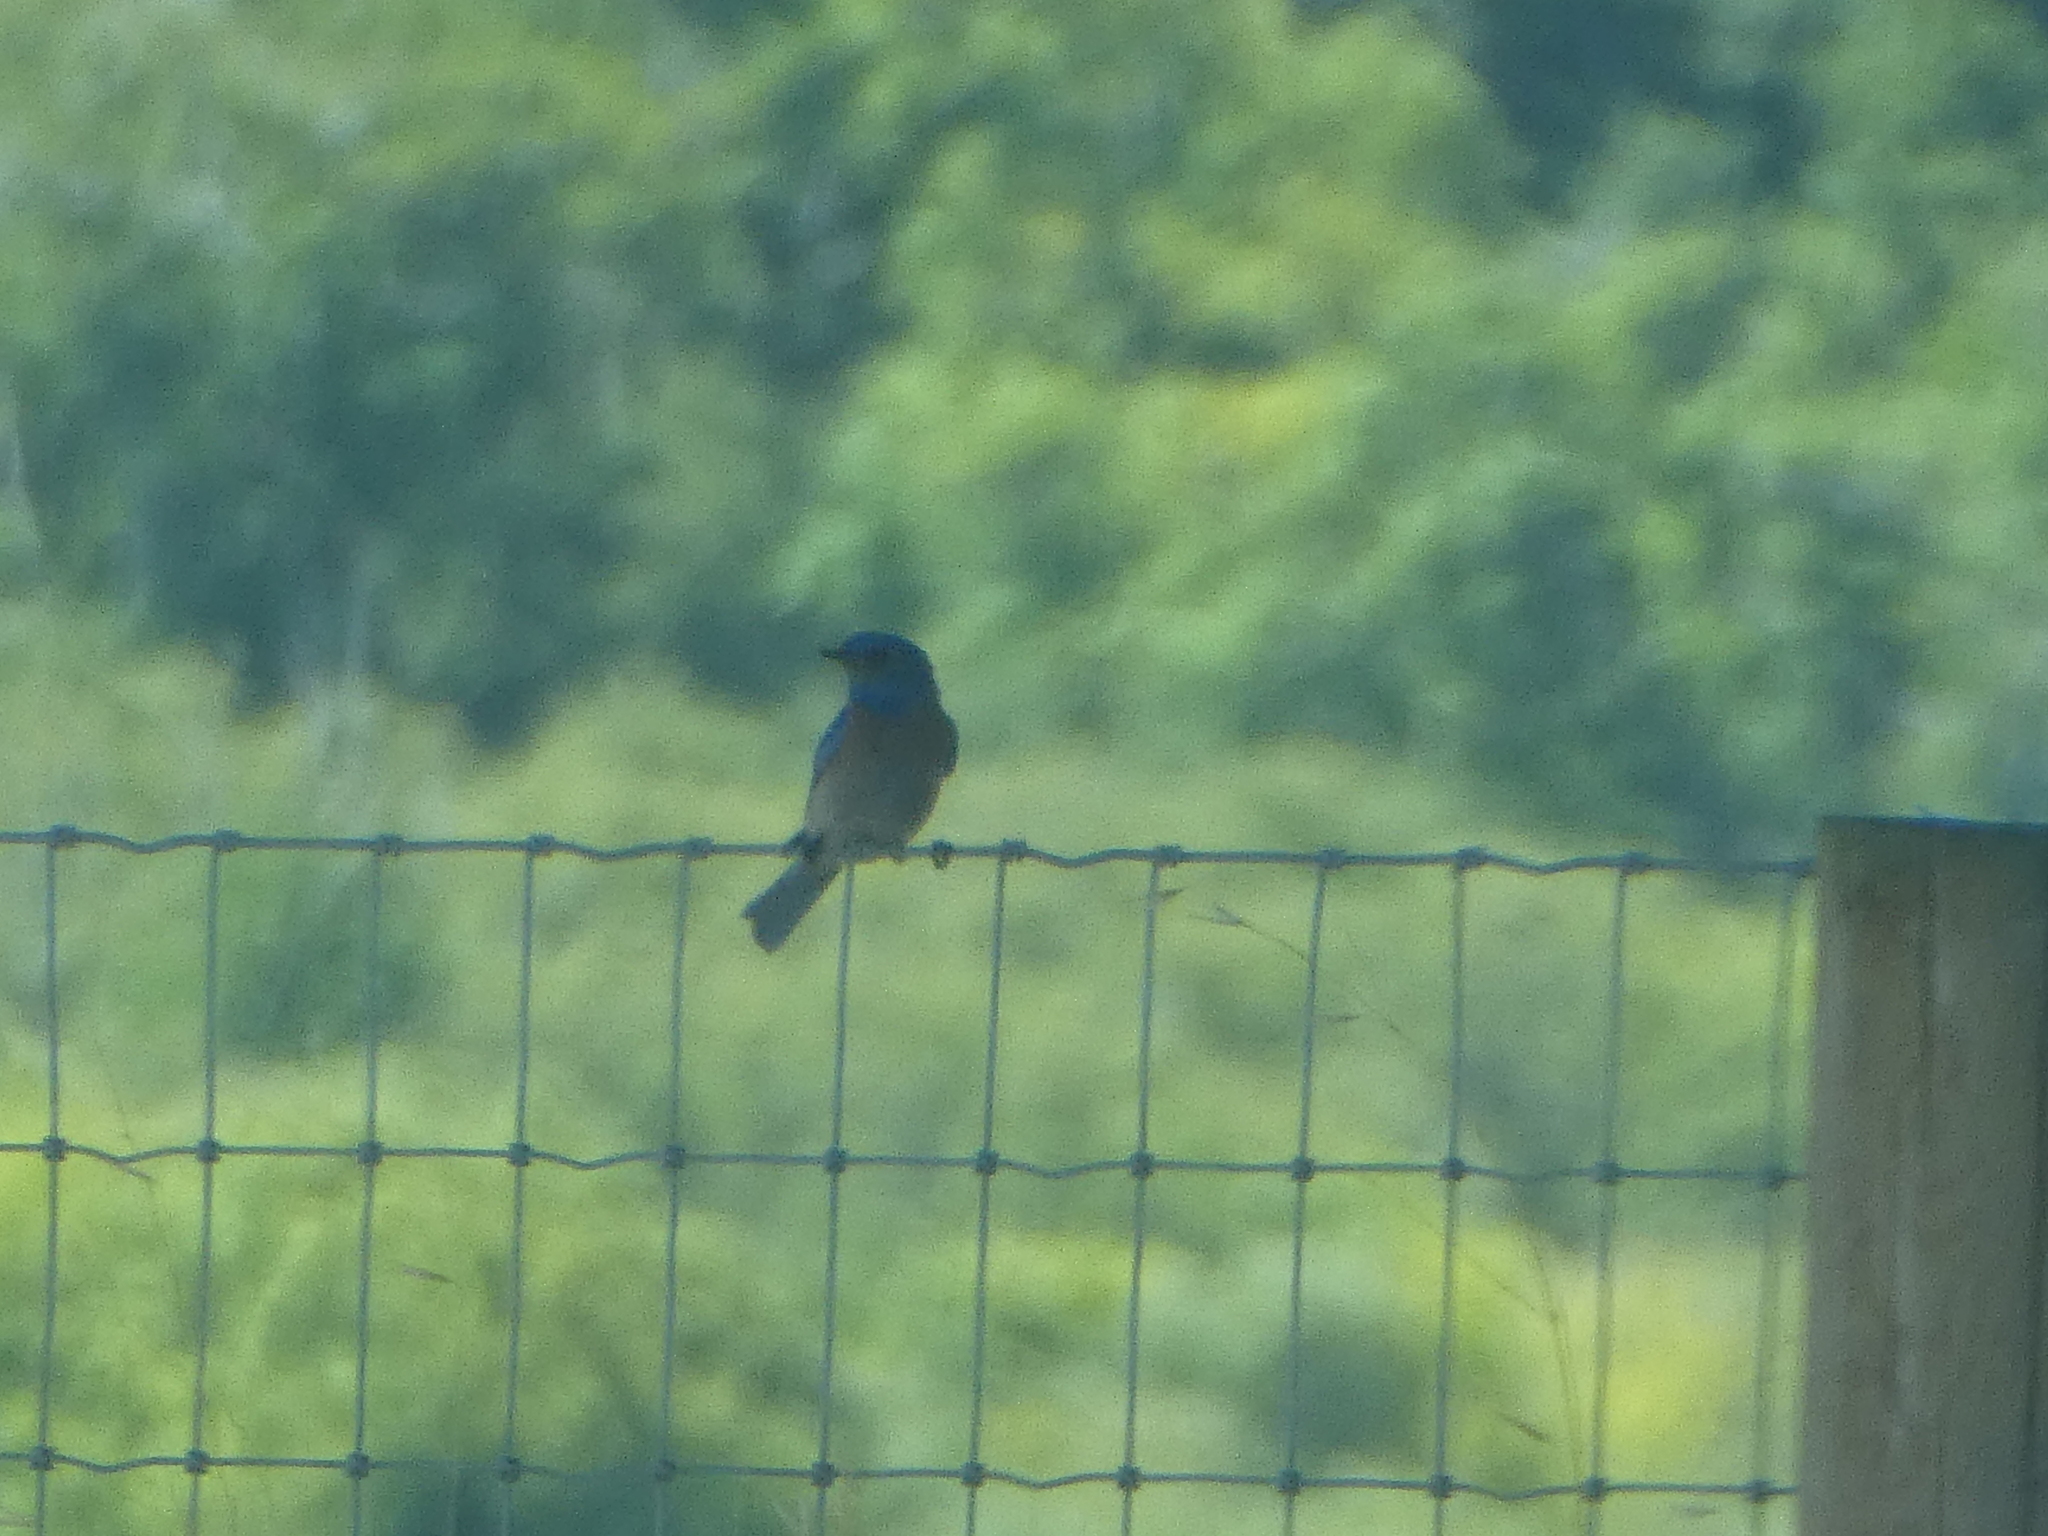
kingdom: Animalia
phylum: Chordata
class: Aves
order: Passeriformes
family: Turdidae
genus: Sialia
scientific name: Sialia mexicana
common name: Western bluebird
